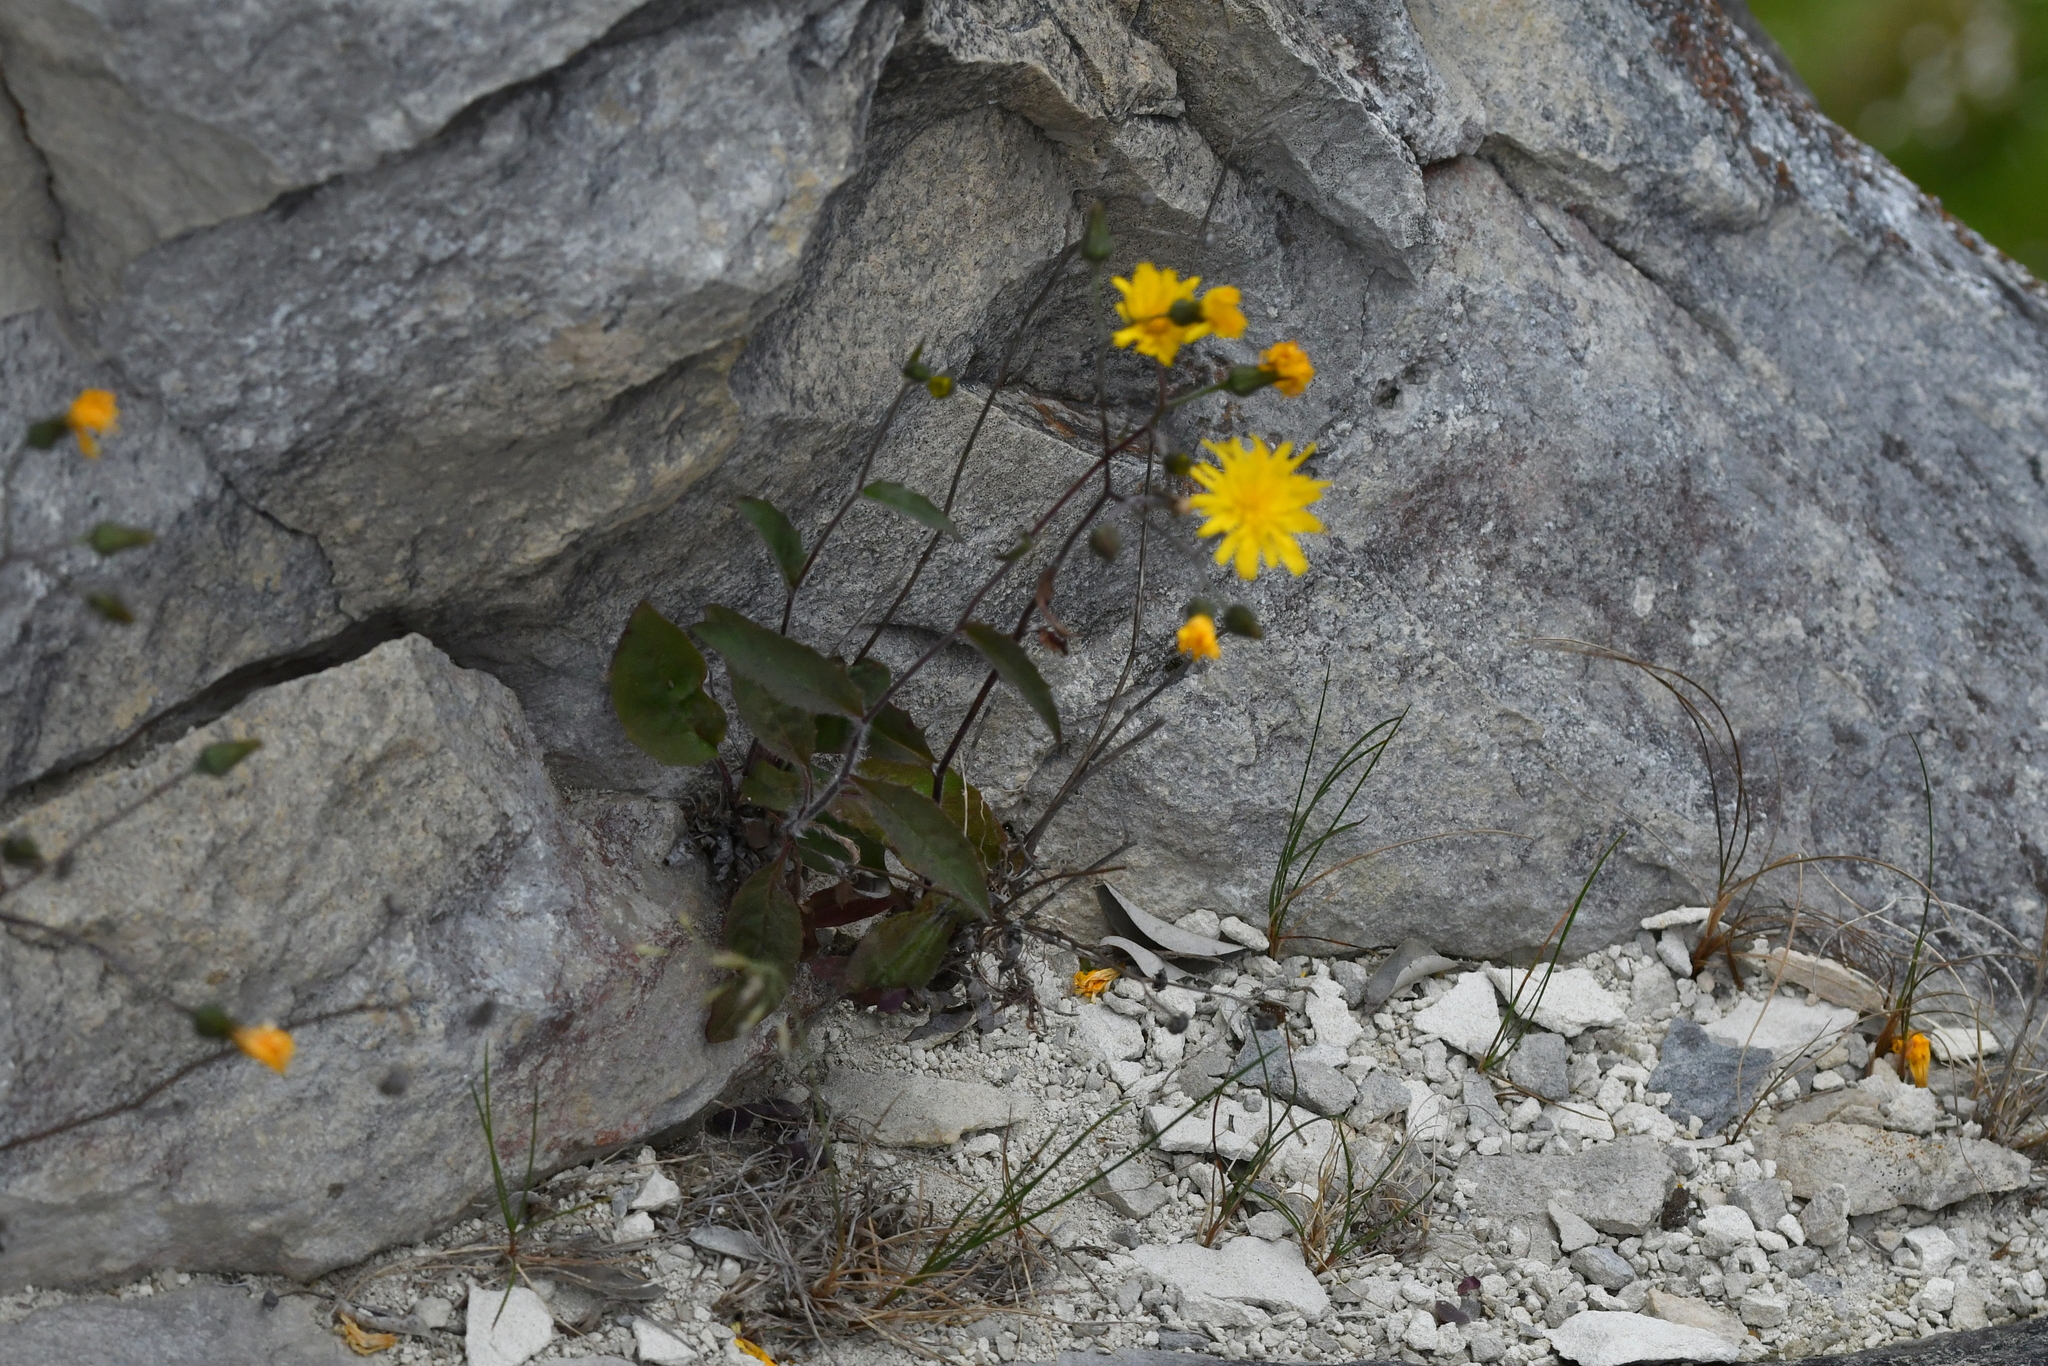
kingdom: Plantae
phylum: Tracheophyta
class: Magnoliopsida
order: Asterales
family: Asteraceae
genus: Hieracium
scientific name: Hieracium lepidulum
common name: Irregular-toothed hawkweed
